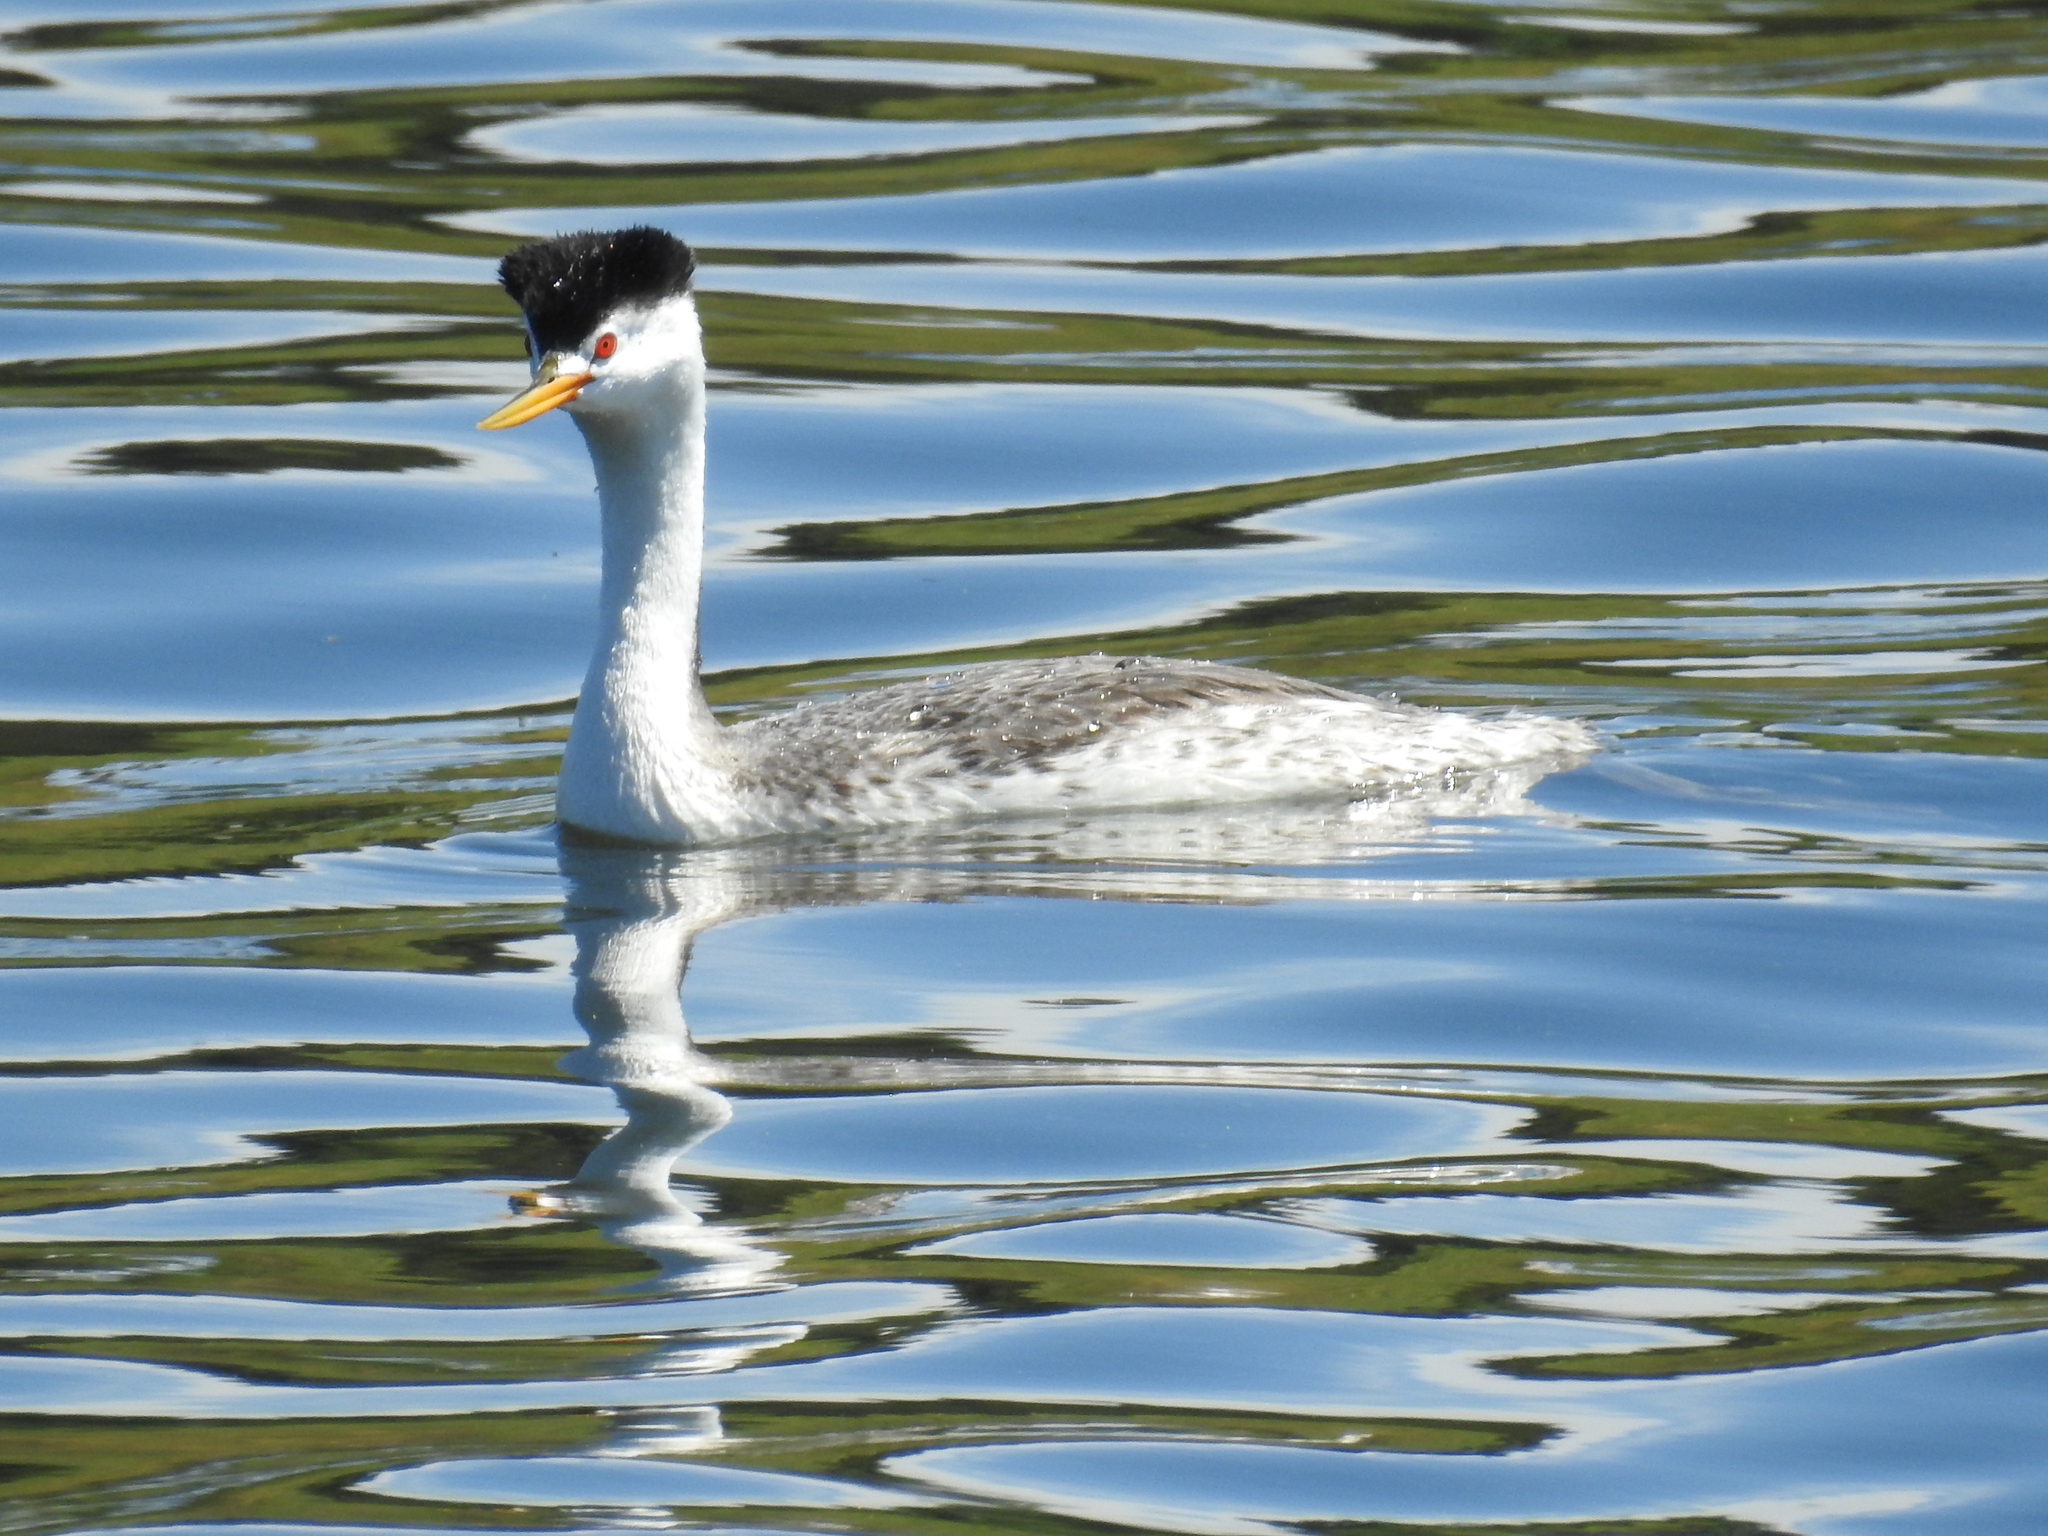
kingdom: Animalia
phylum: Chordata
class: Aves
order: Podicipediformes
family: Podicipedidae
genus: Aechmophorus
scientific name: Aechmophorus clarkii
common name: Clark's grebe
